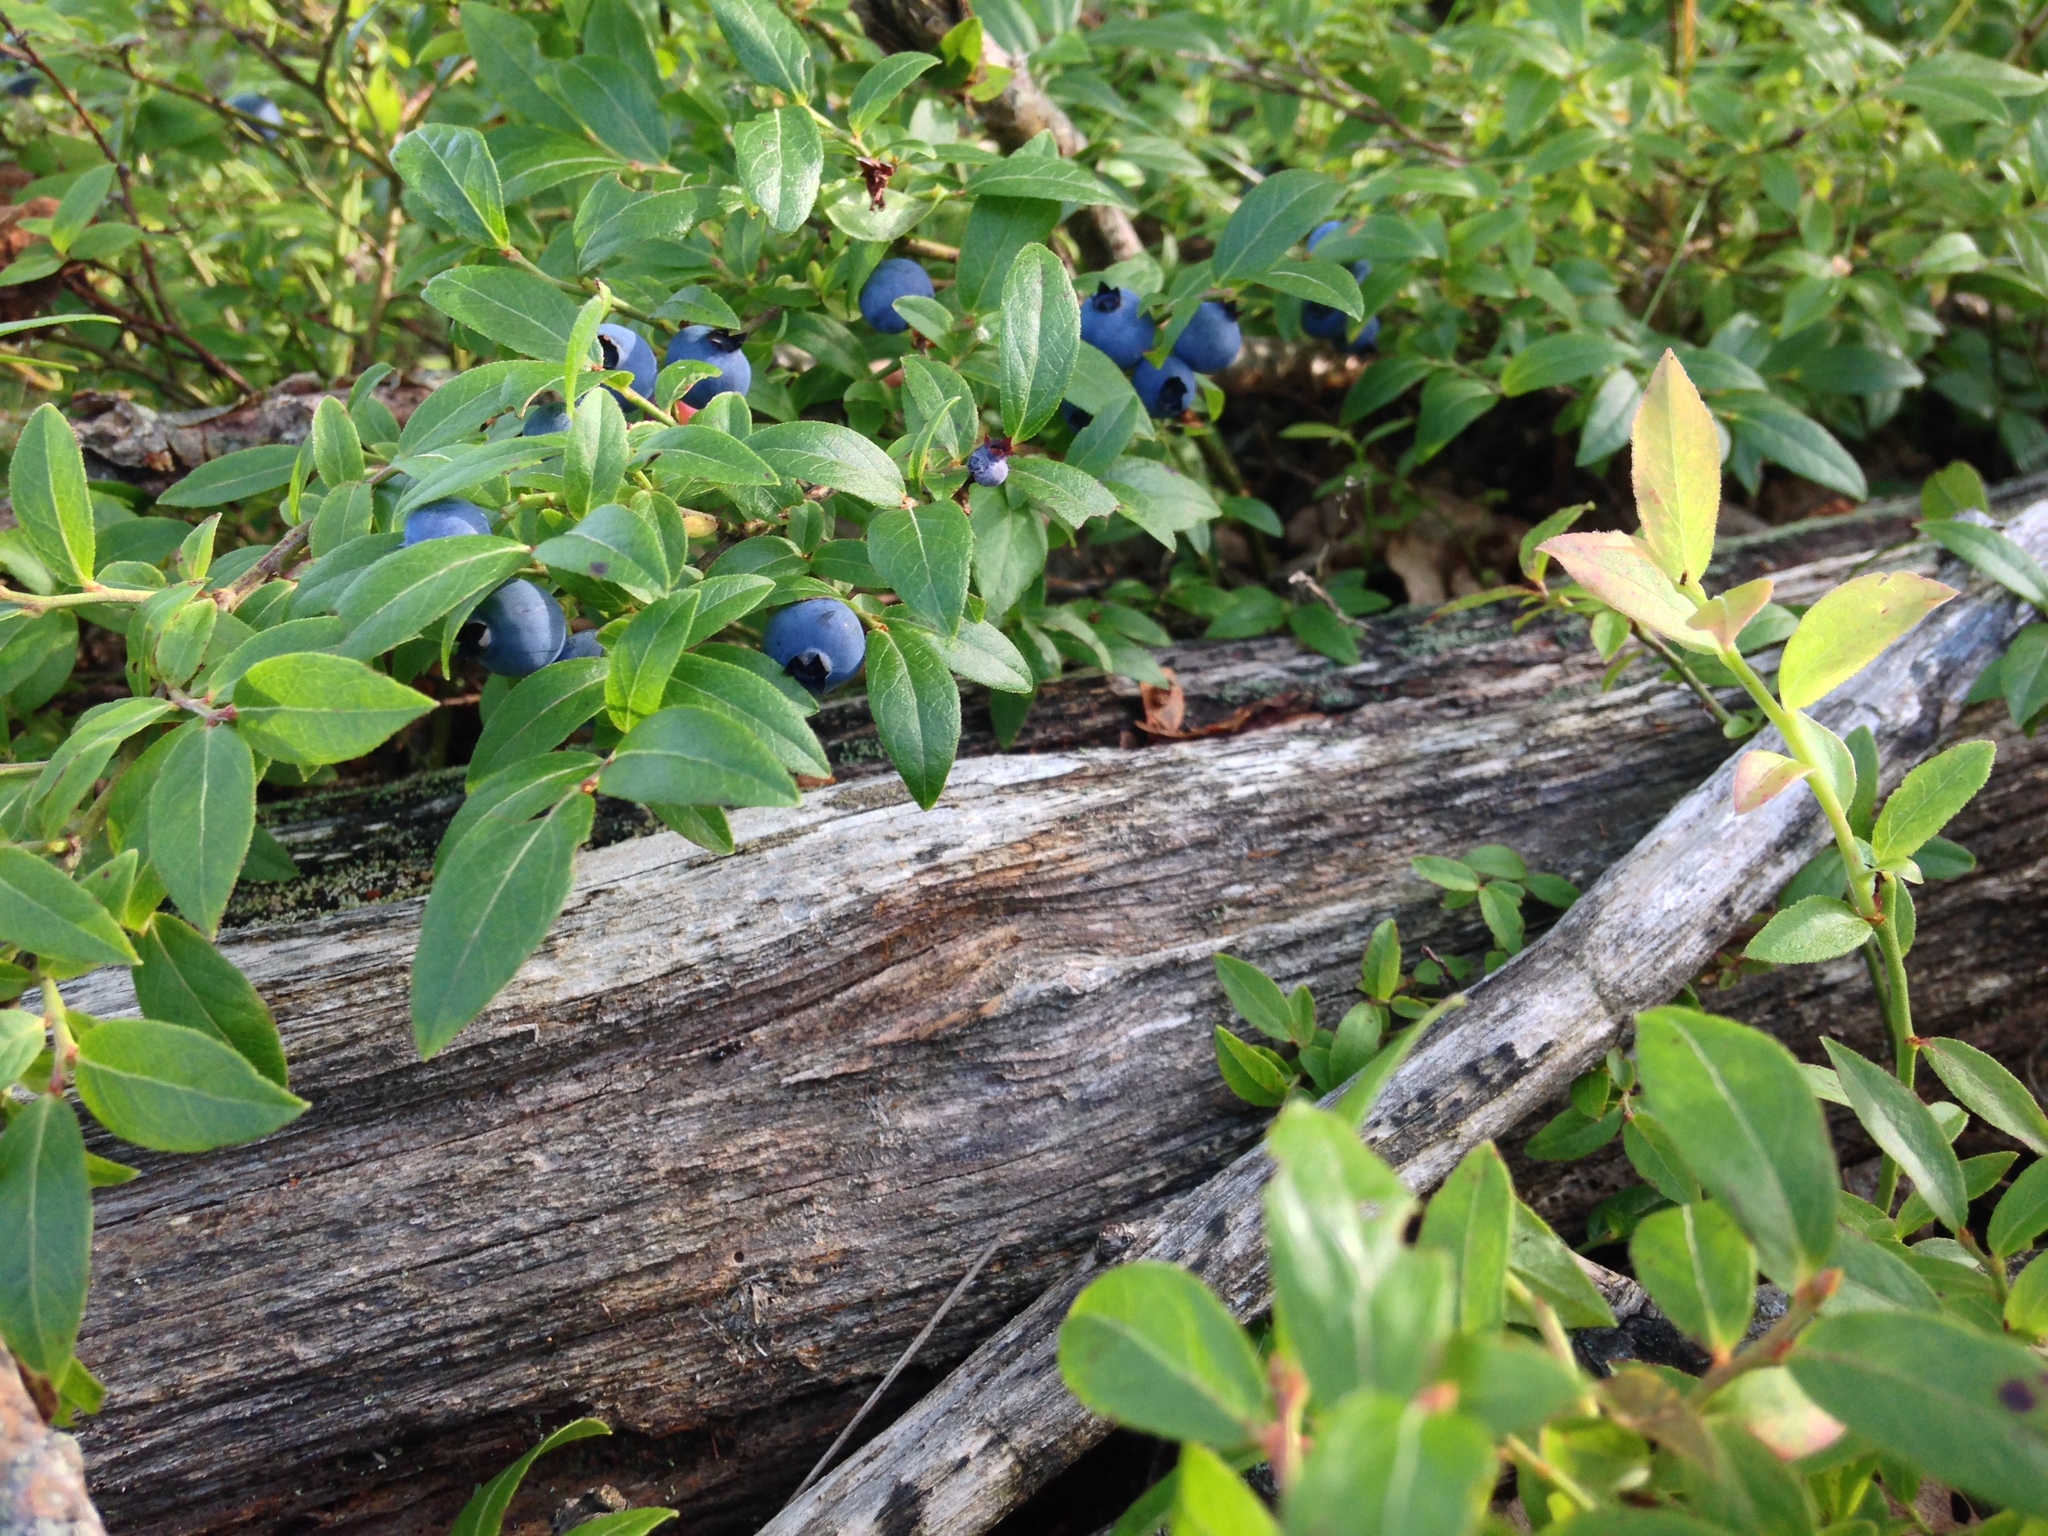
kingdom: Plantae
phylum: Tracheophyta
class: Magnoliopsida
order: Ericales
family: Ericaceae
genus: Vaccinium
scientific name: Vaccinium angustifolium
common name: Early lowbush blueberry
